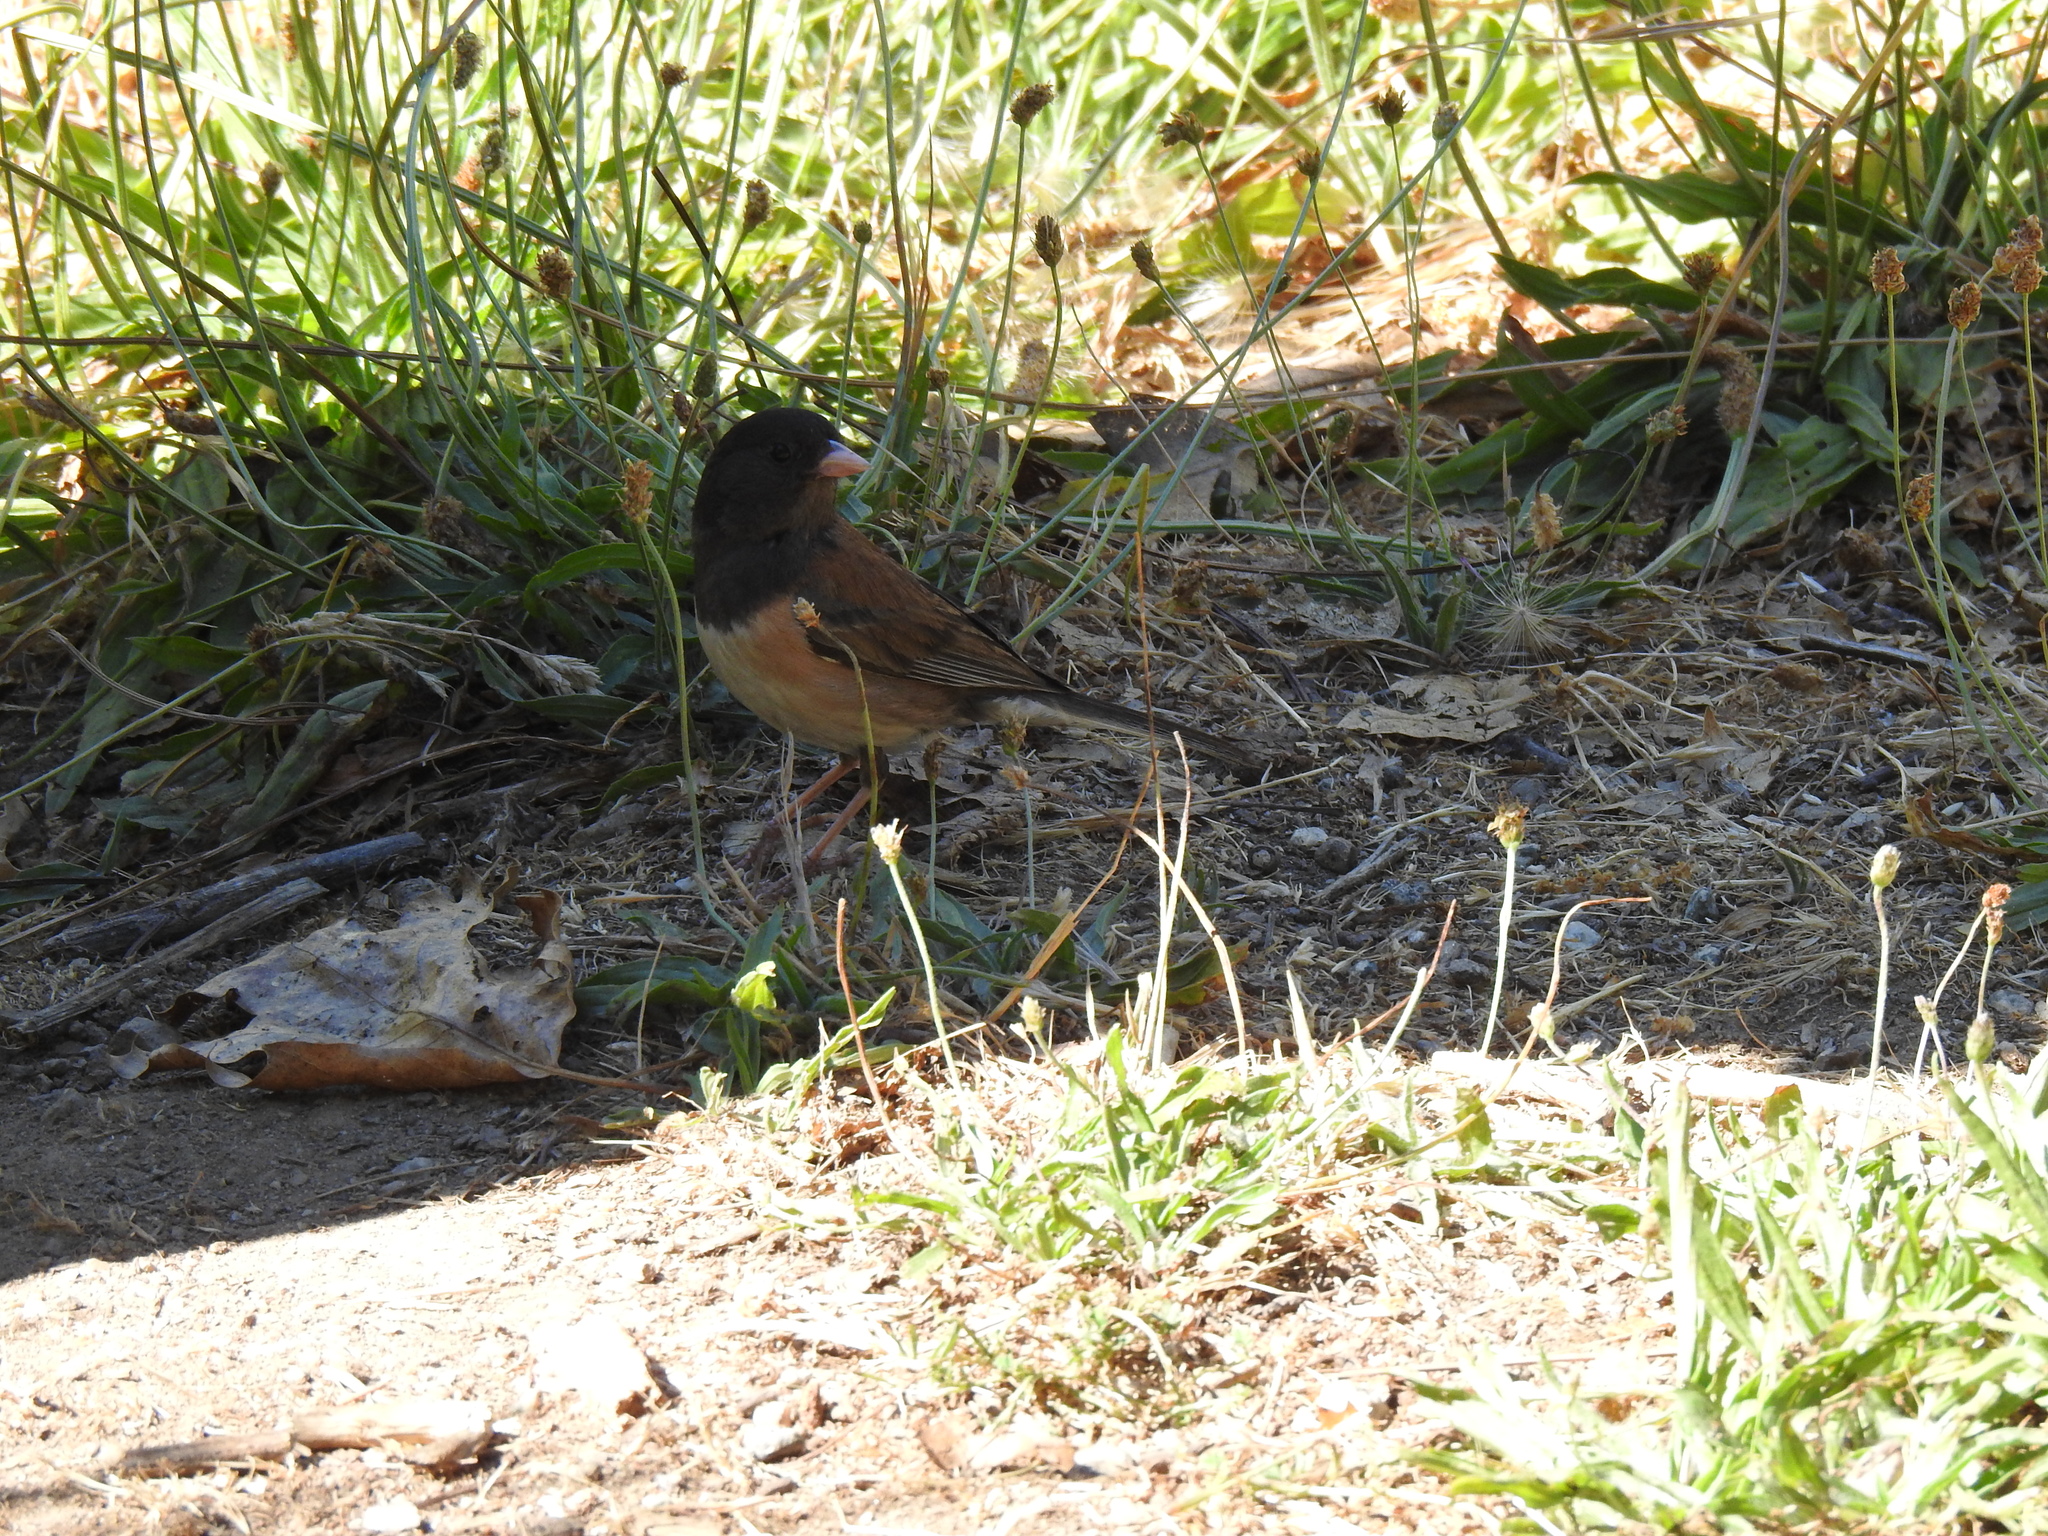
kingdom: Animalia
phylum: Chordata
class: Aves
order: Passeriformes
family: Passerellidae
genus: Junco
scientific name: Junco hyemalis
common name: Dark-eyed junco
